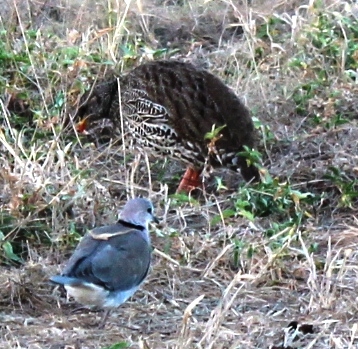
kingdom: Animalia
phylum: Chordata
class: Aves
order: Galliformes
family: Phasianidae
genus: Pternistis
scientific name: Pternistis natalensis
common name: Natal spurfowl
